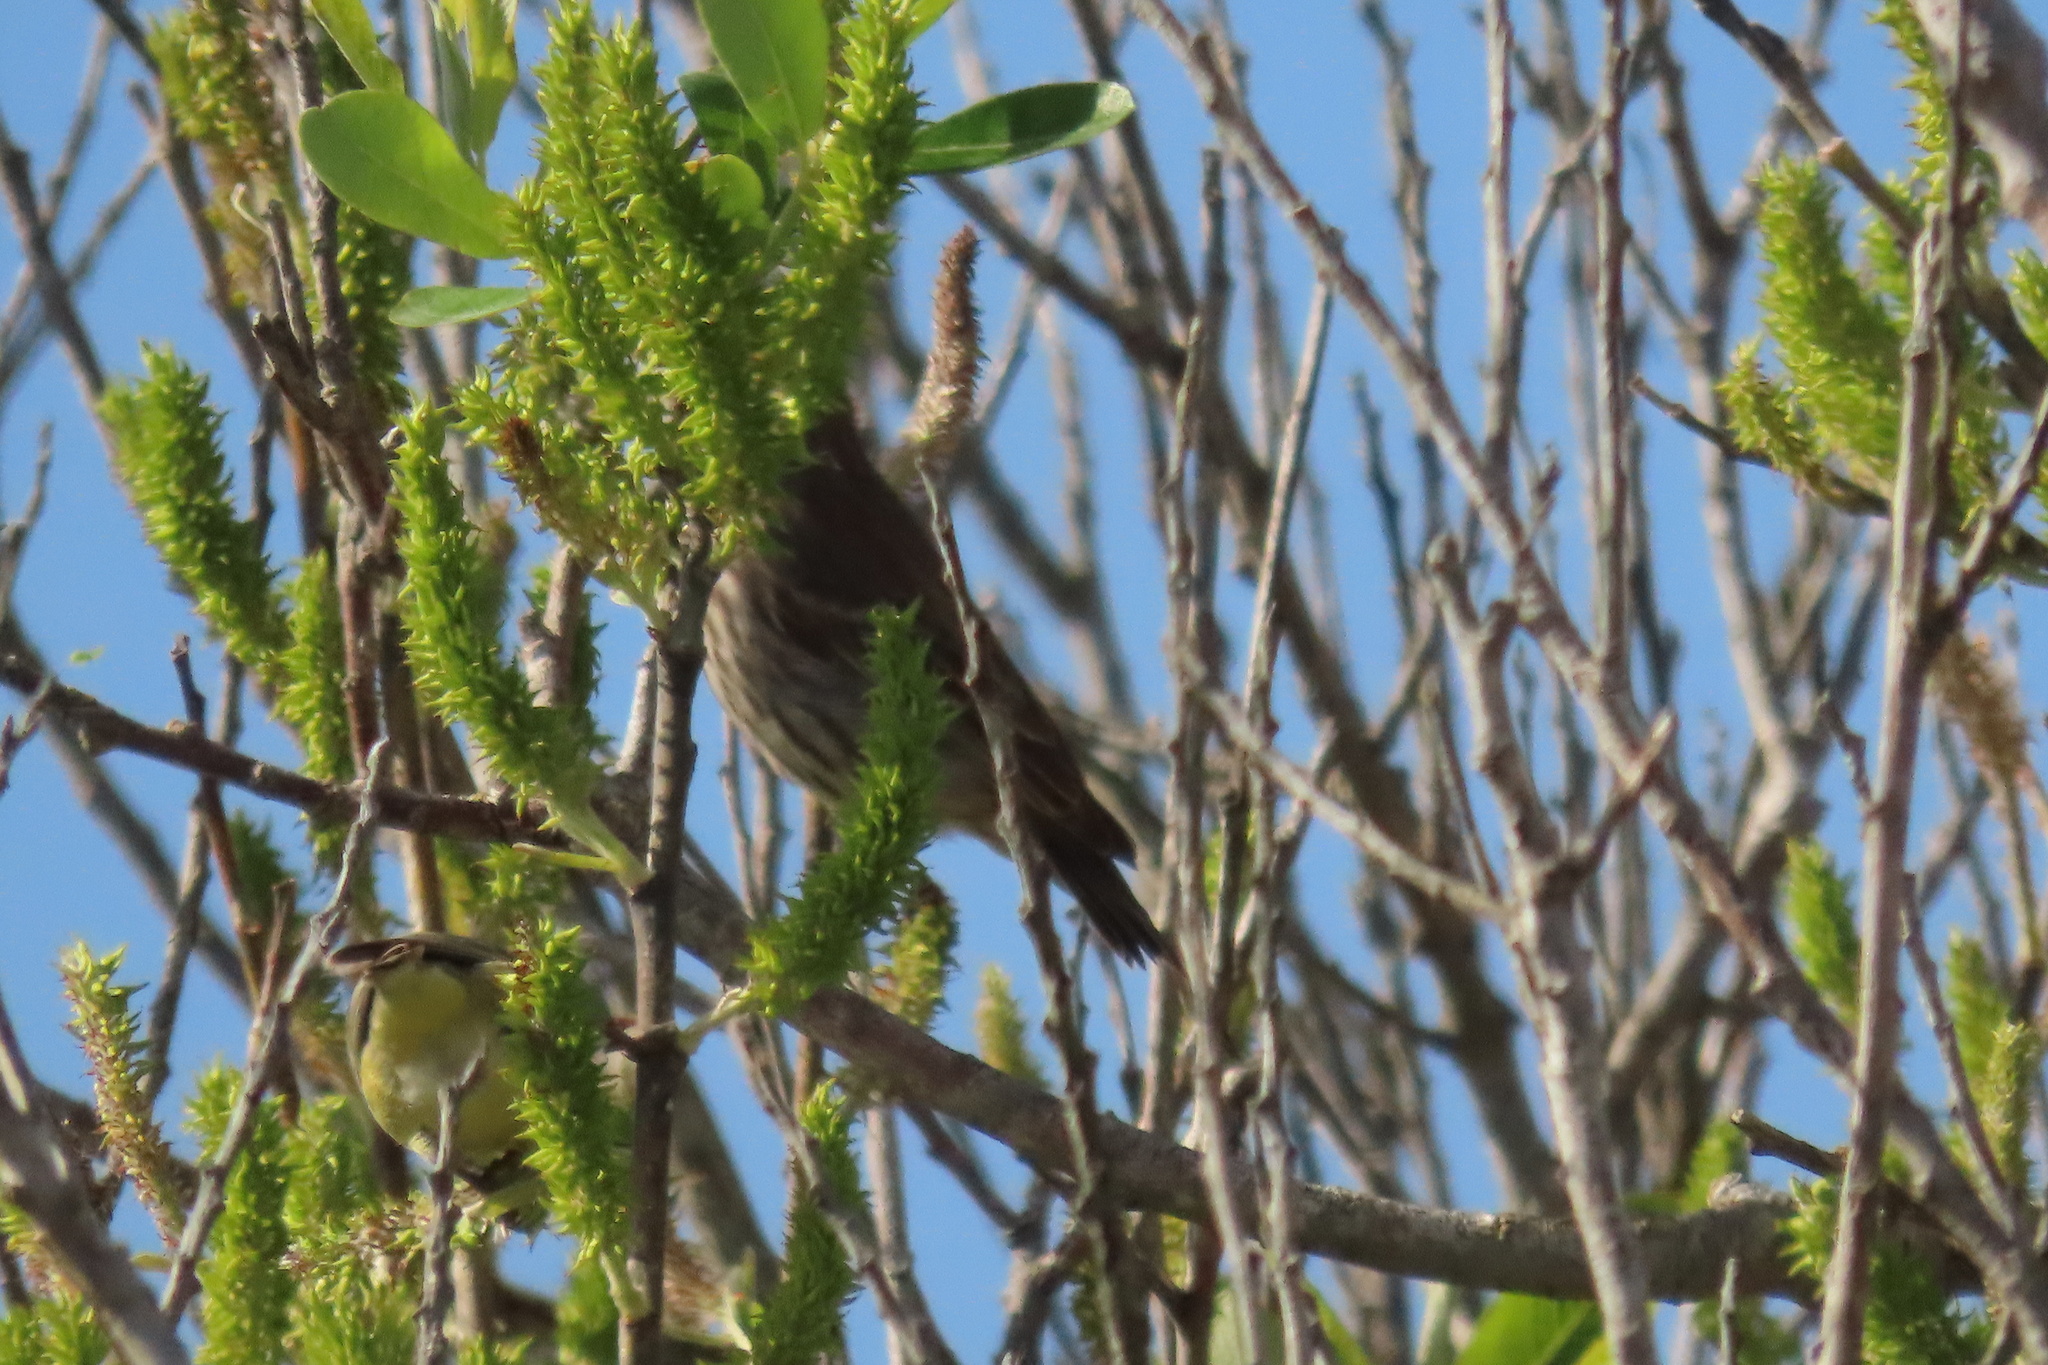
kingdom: Animalia
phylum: Chordata
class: Aves
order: Passeriformes
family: Fringillidae
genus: Haemorhous
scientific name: Haemorhous mexicanus
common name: House finch
